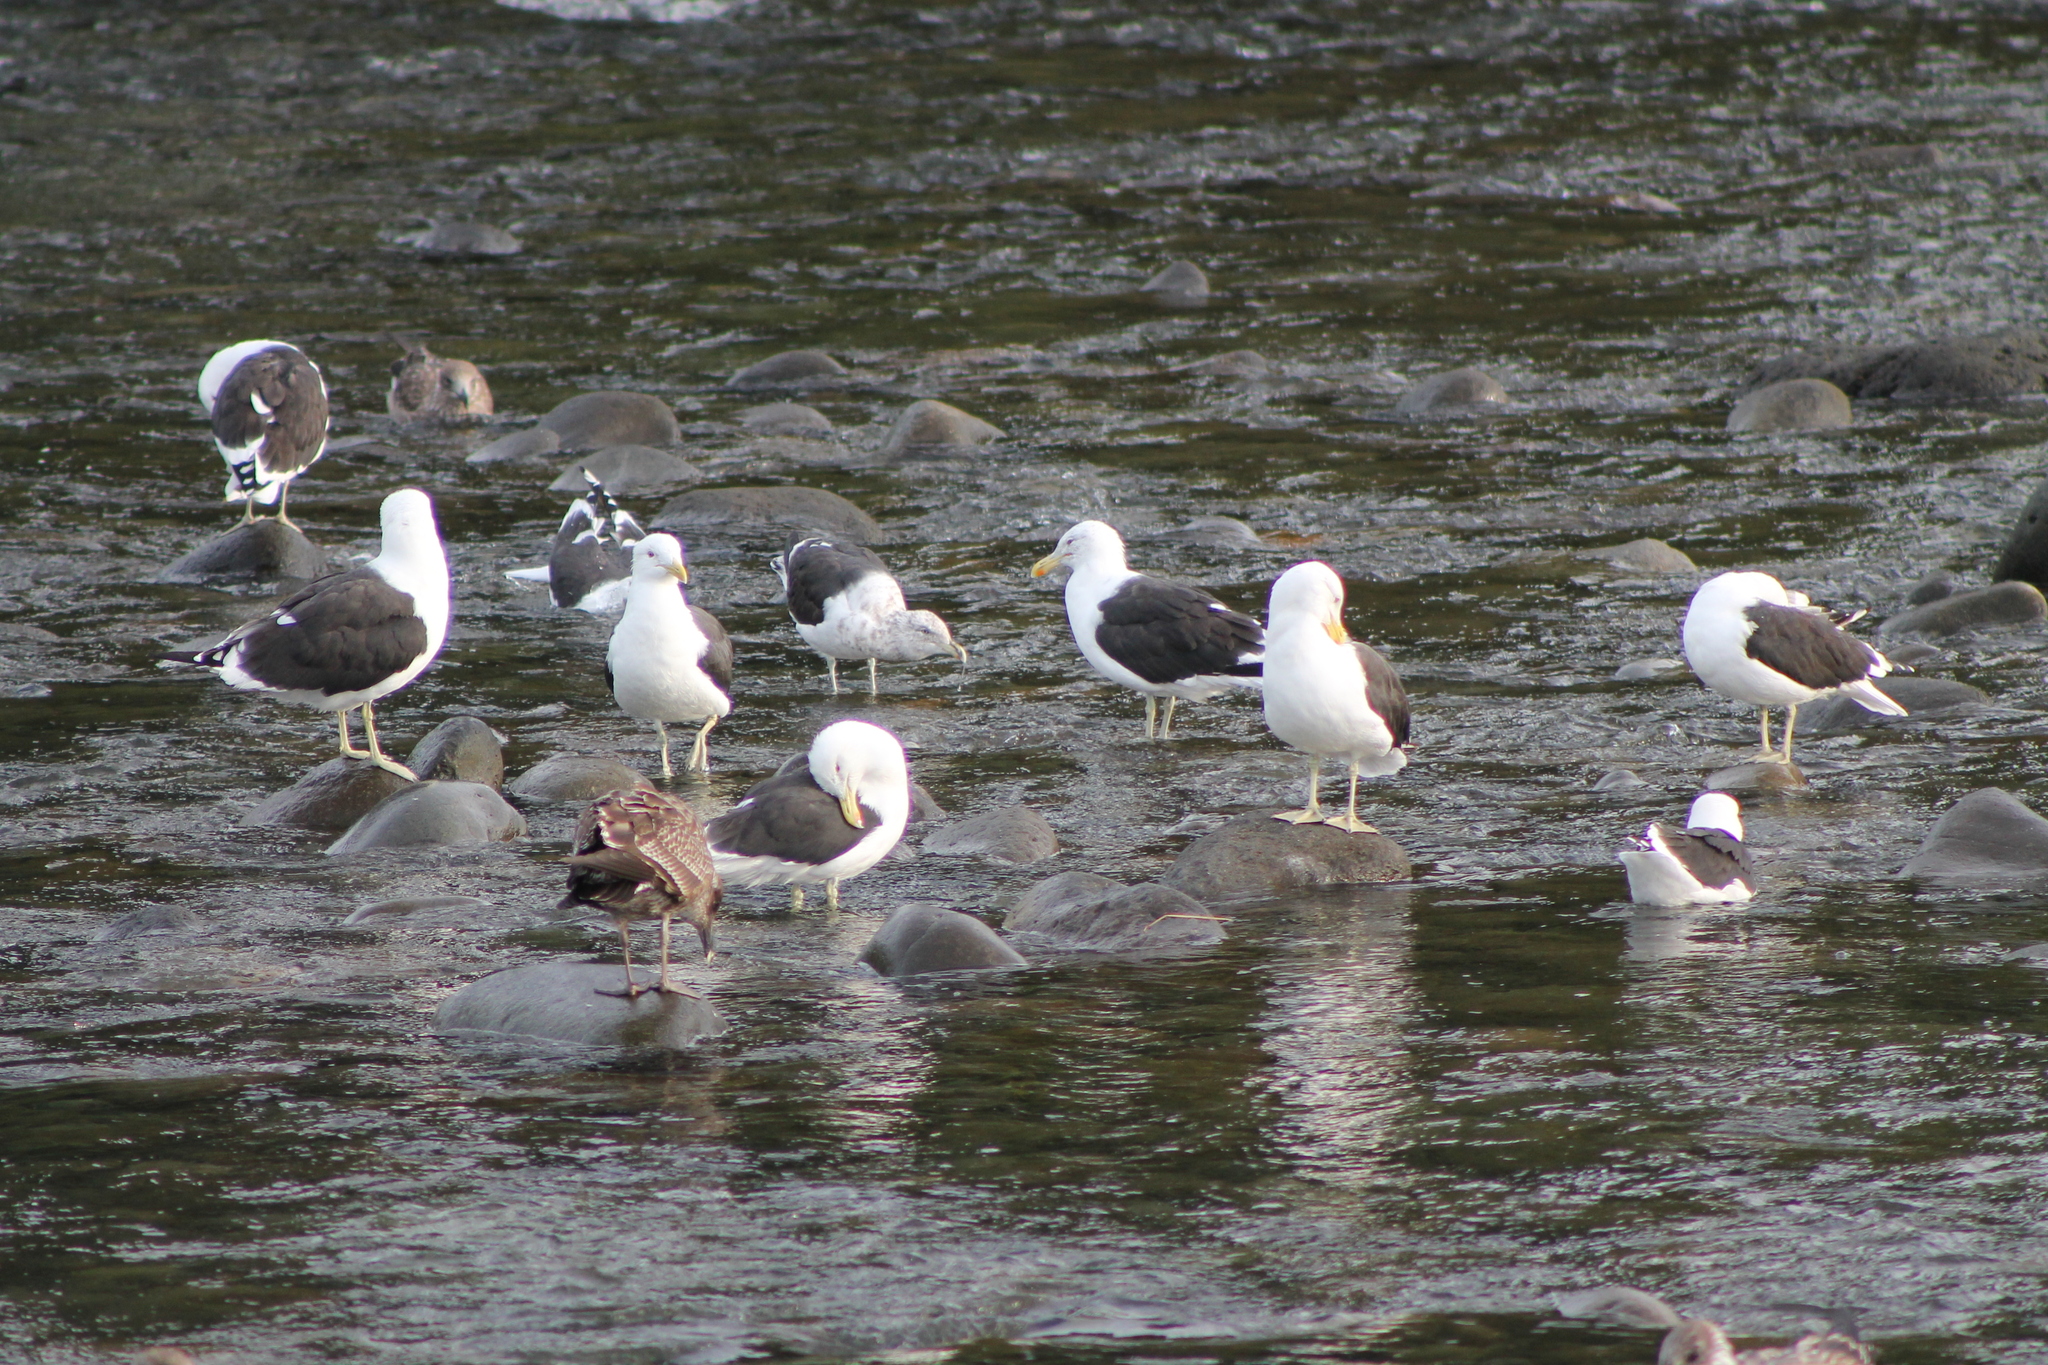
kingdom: Animalia
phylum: Chordata
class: Aves
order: Charadriiformes
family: Laridae
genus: Larus
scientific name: Larus dominicanus
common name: Kelp gull
